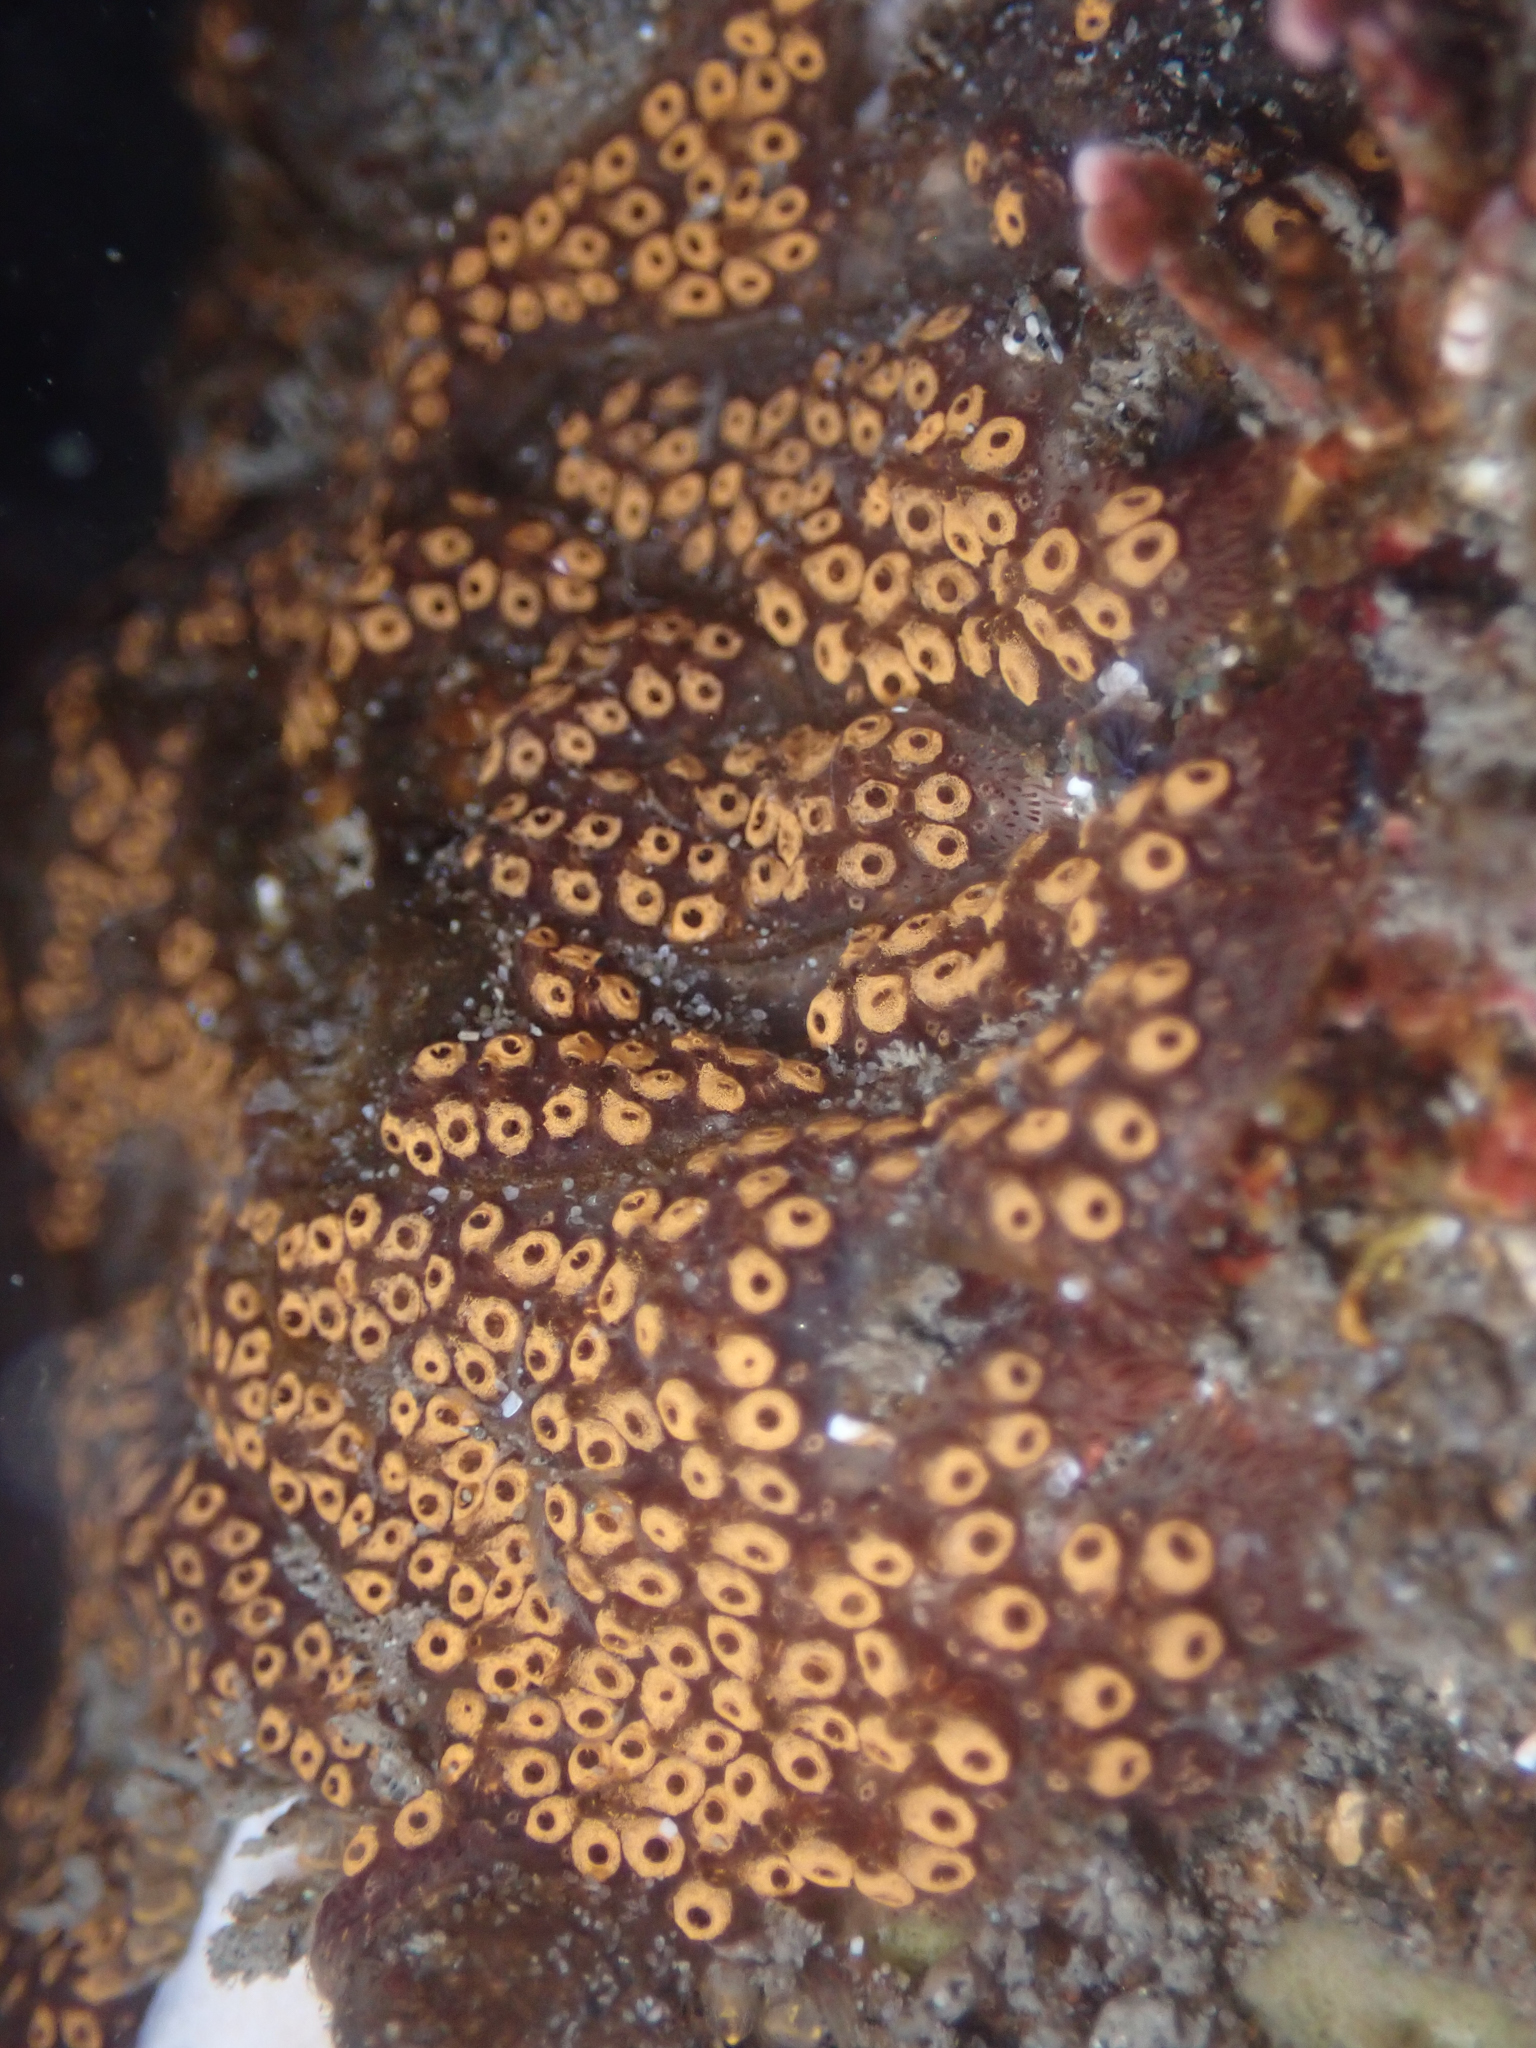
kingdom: Animalia
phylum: Chordata
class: Ascidiacea
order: Stolidobranchia
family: Styelidae
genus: Botrylloides
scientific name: Botrylloides diegensis
